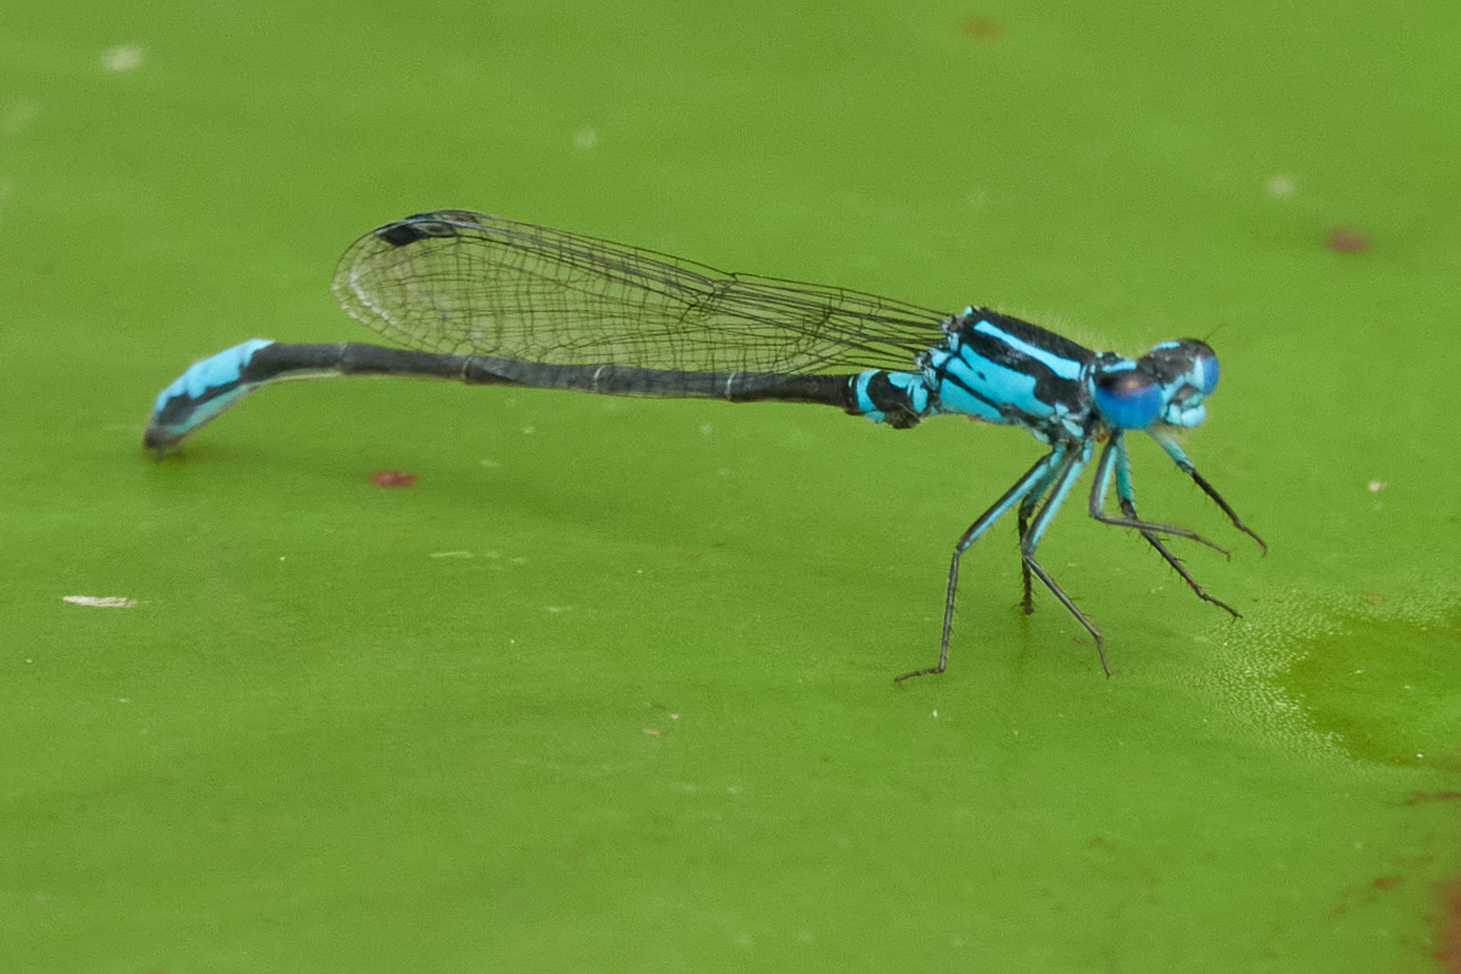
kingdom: Animalia
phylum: Arthropoda
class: Insecta
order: Odonata
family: Coenagrionidae
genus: Ischnura
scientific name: Ischnura kellicotti
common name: Lilypad forktail
